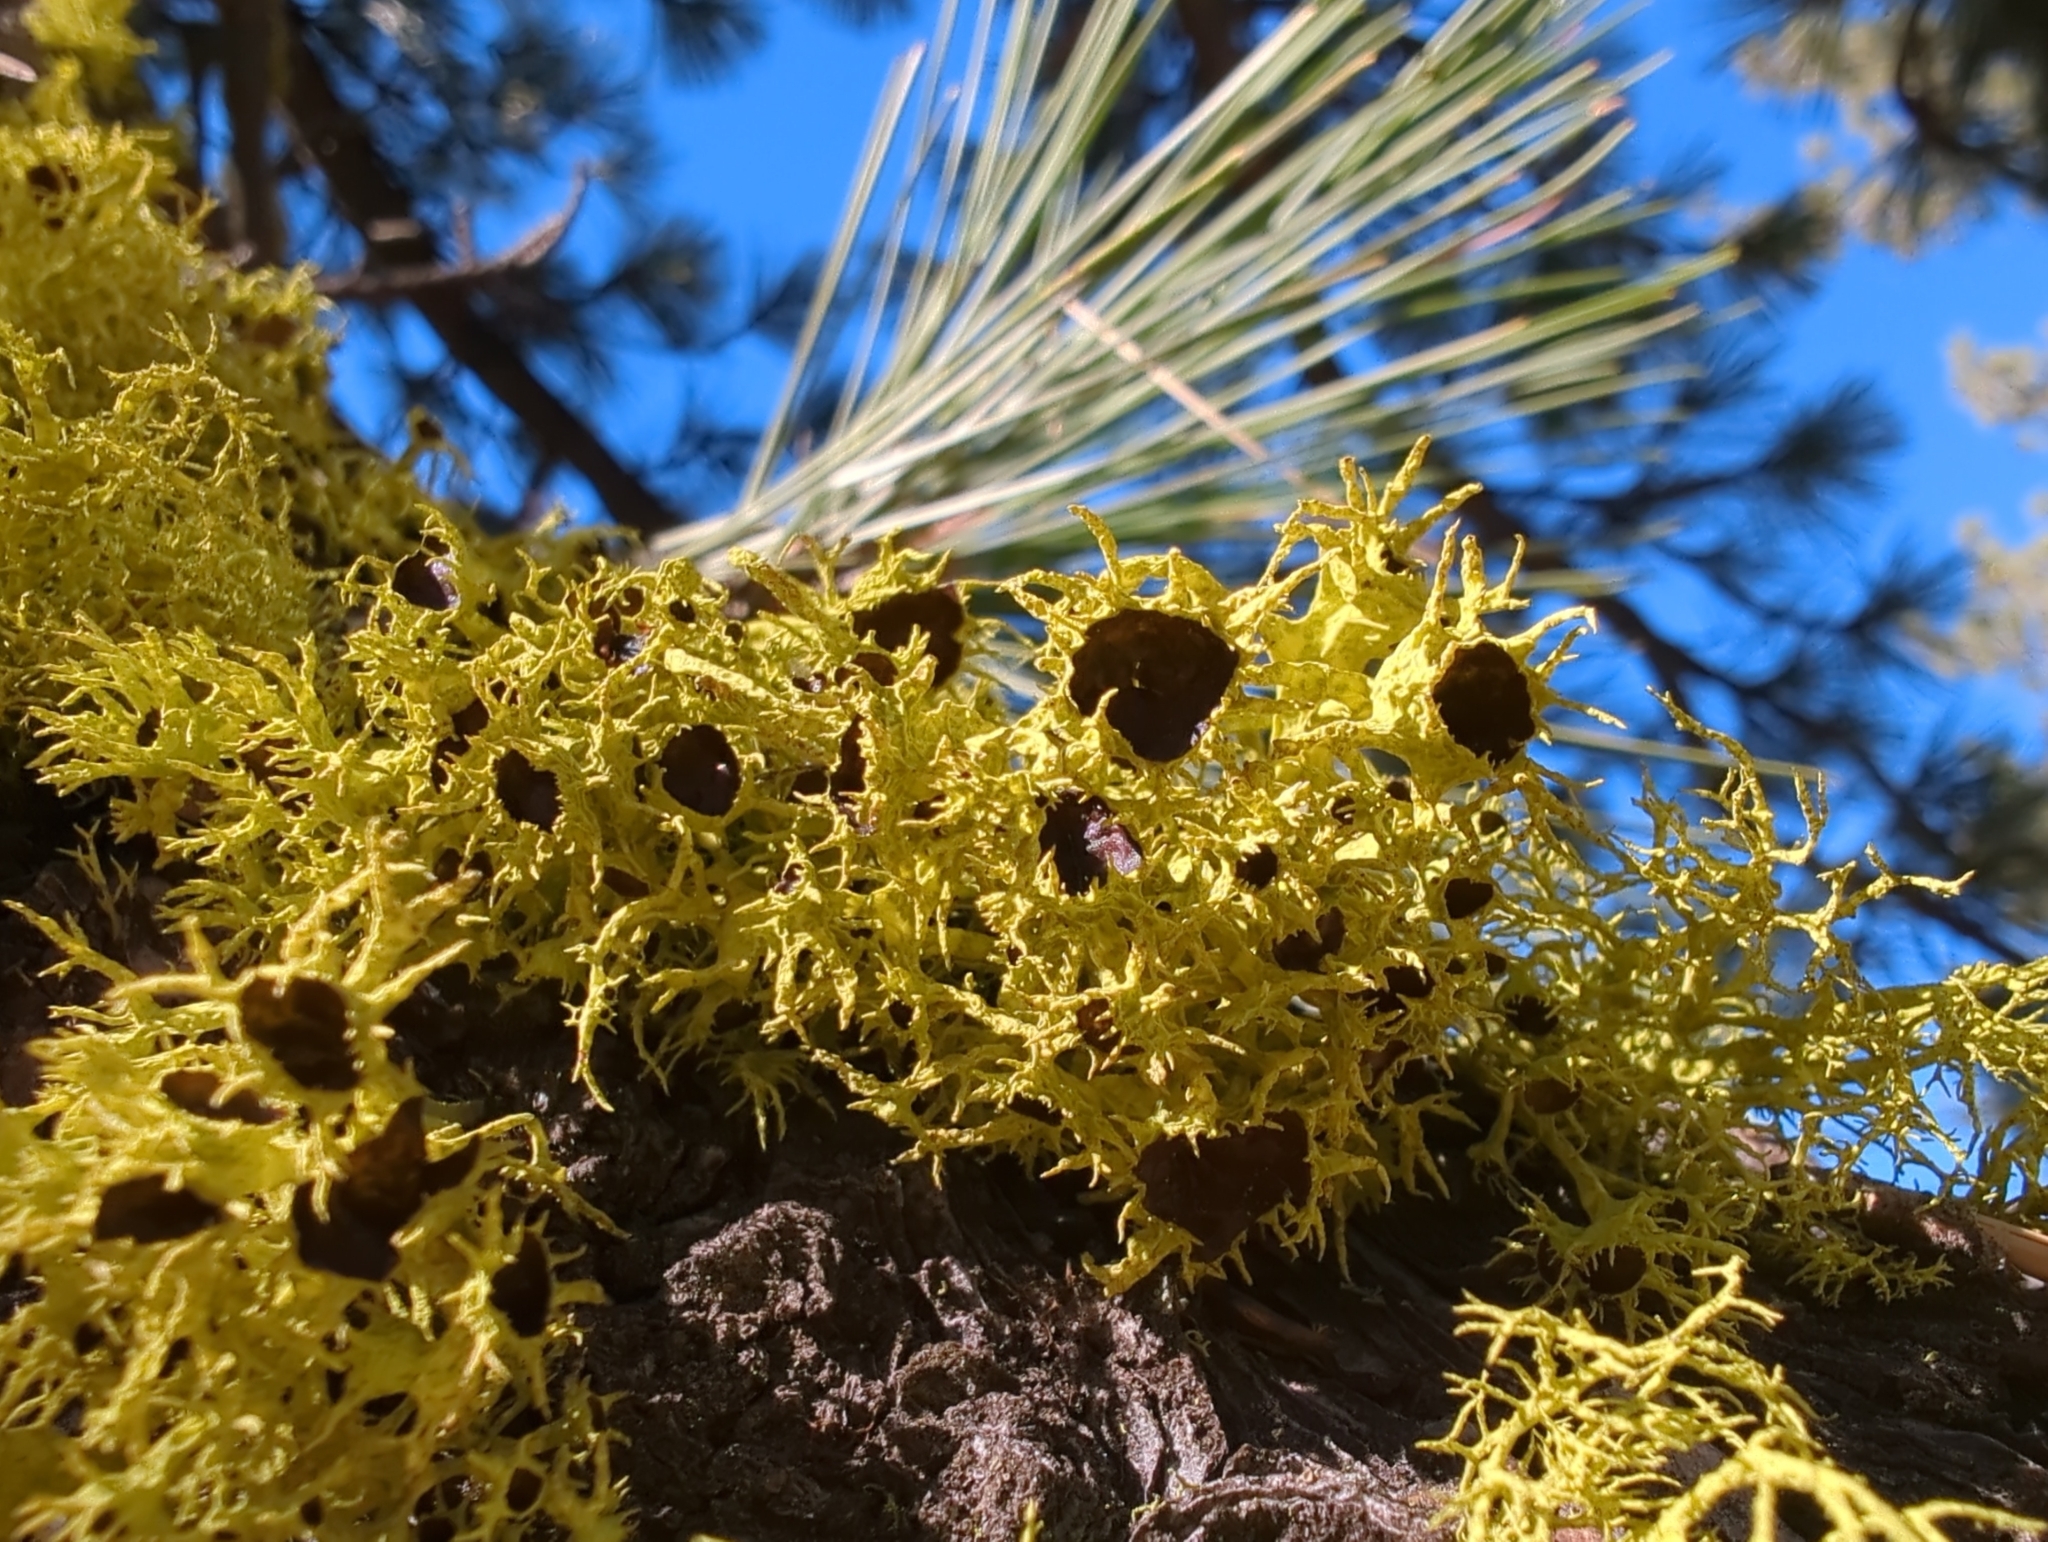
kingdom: Fungi
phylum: Ascomycota
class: Lecanoromycetes
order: Lecanorales
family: Parmeliaceae
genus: Letharia
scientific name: Letharia columbiana
